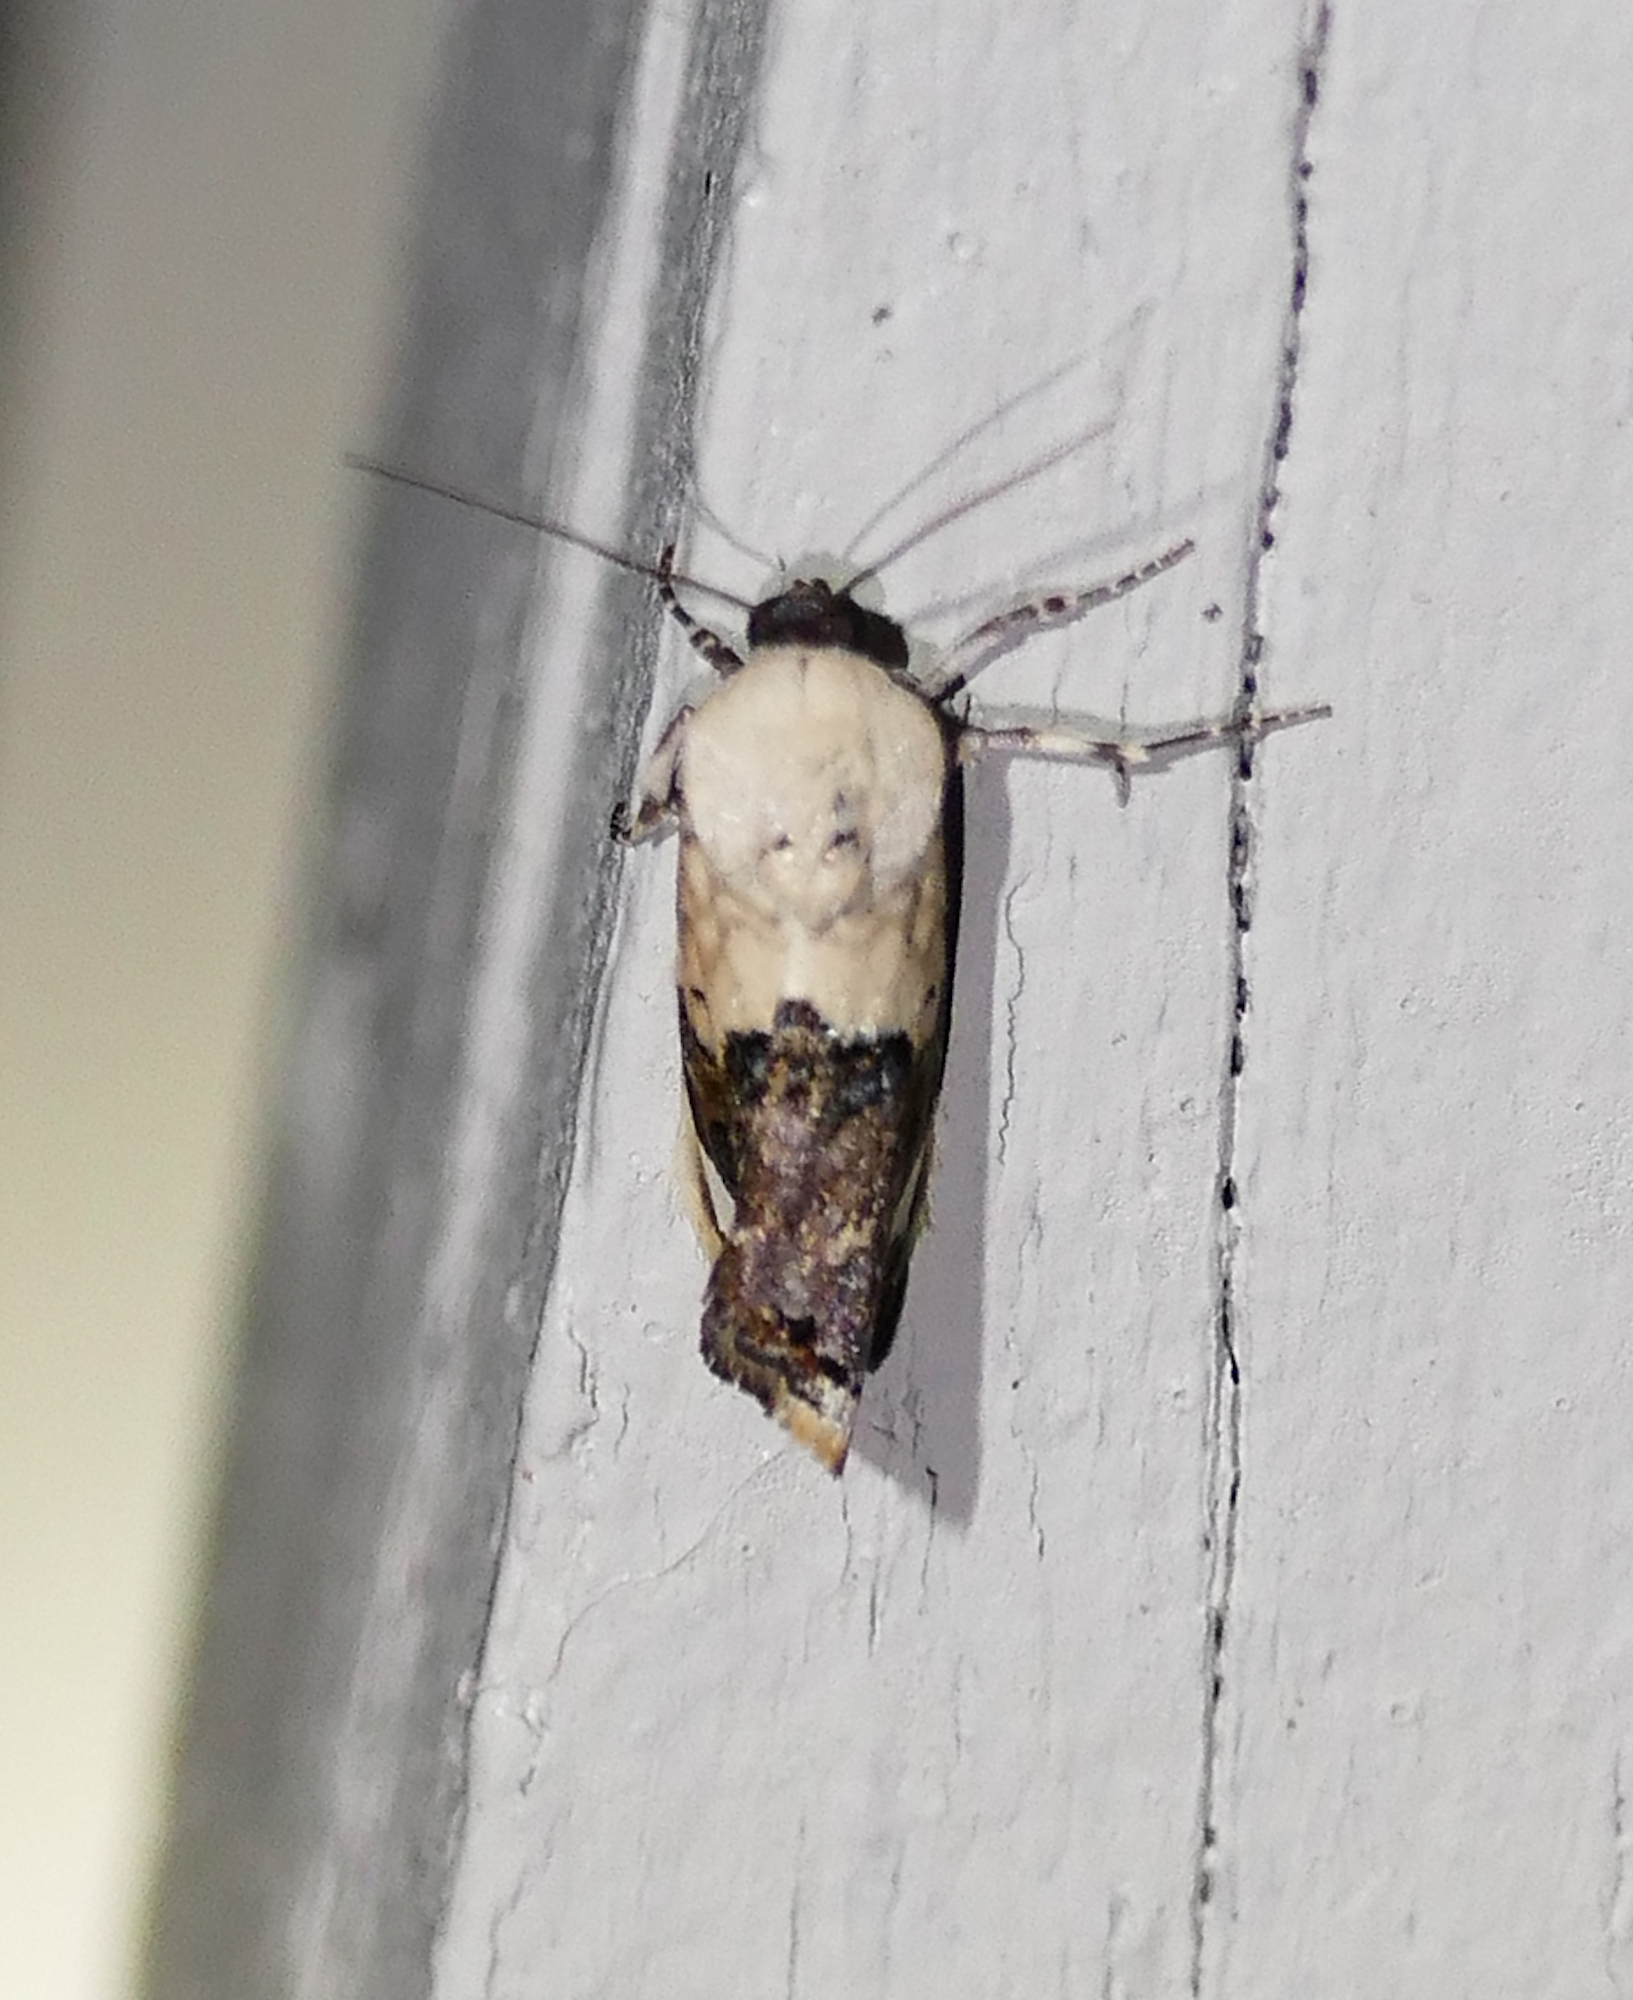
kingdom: Animalia
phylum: Arthropoda
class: Insecta
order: Lepidoptera
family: Noctuidae
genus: Acontia
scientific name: Acontia Tarache areloides
